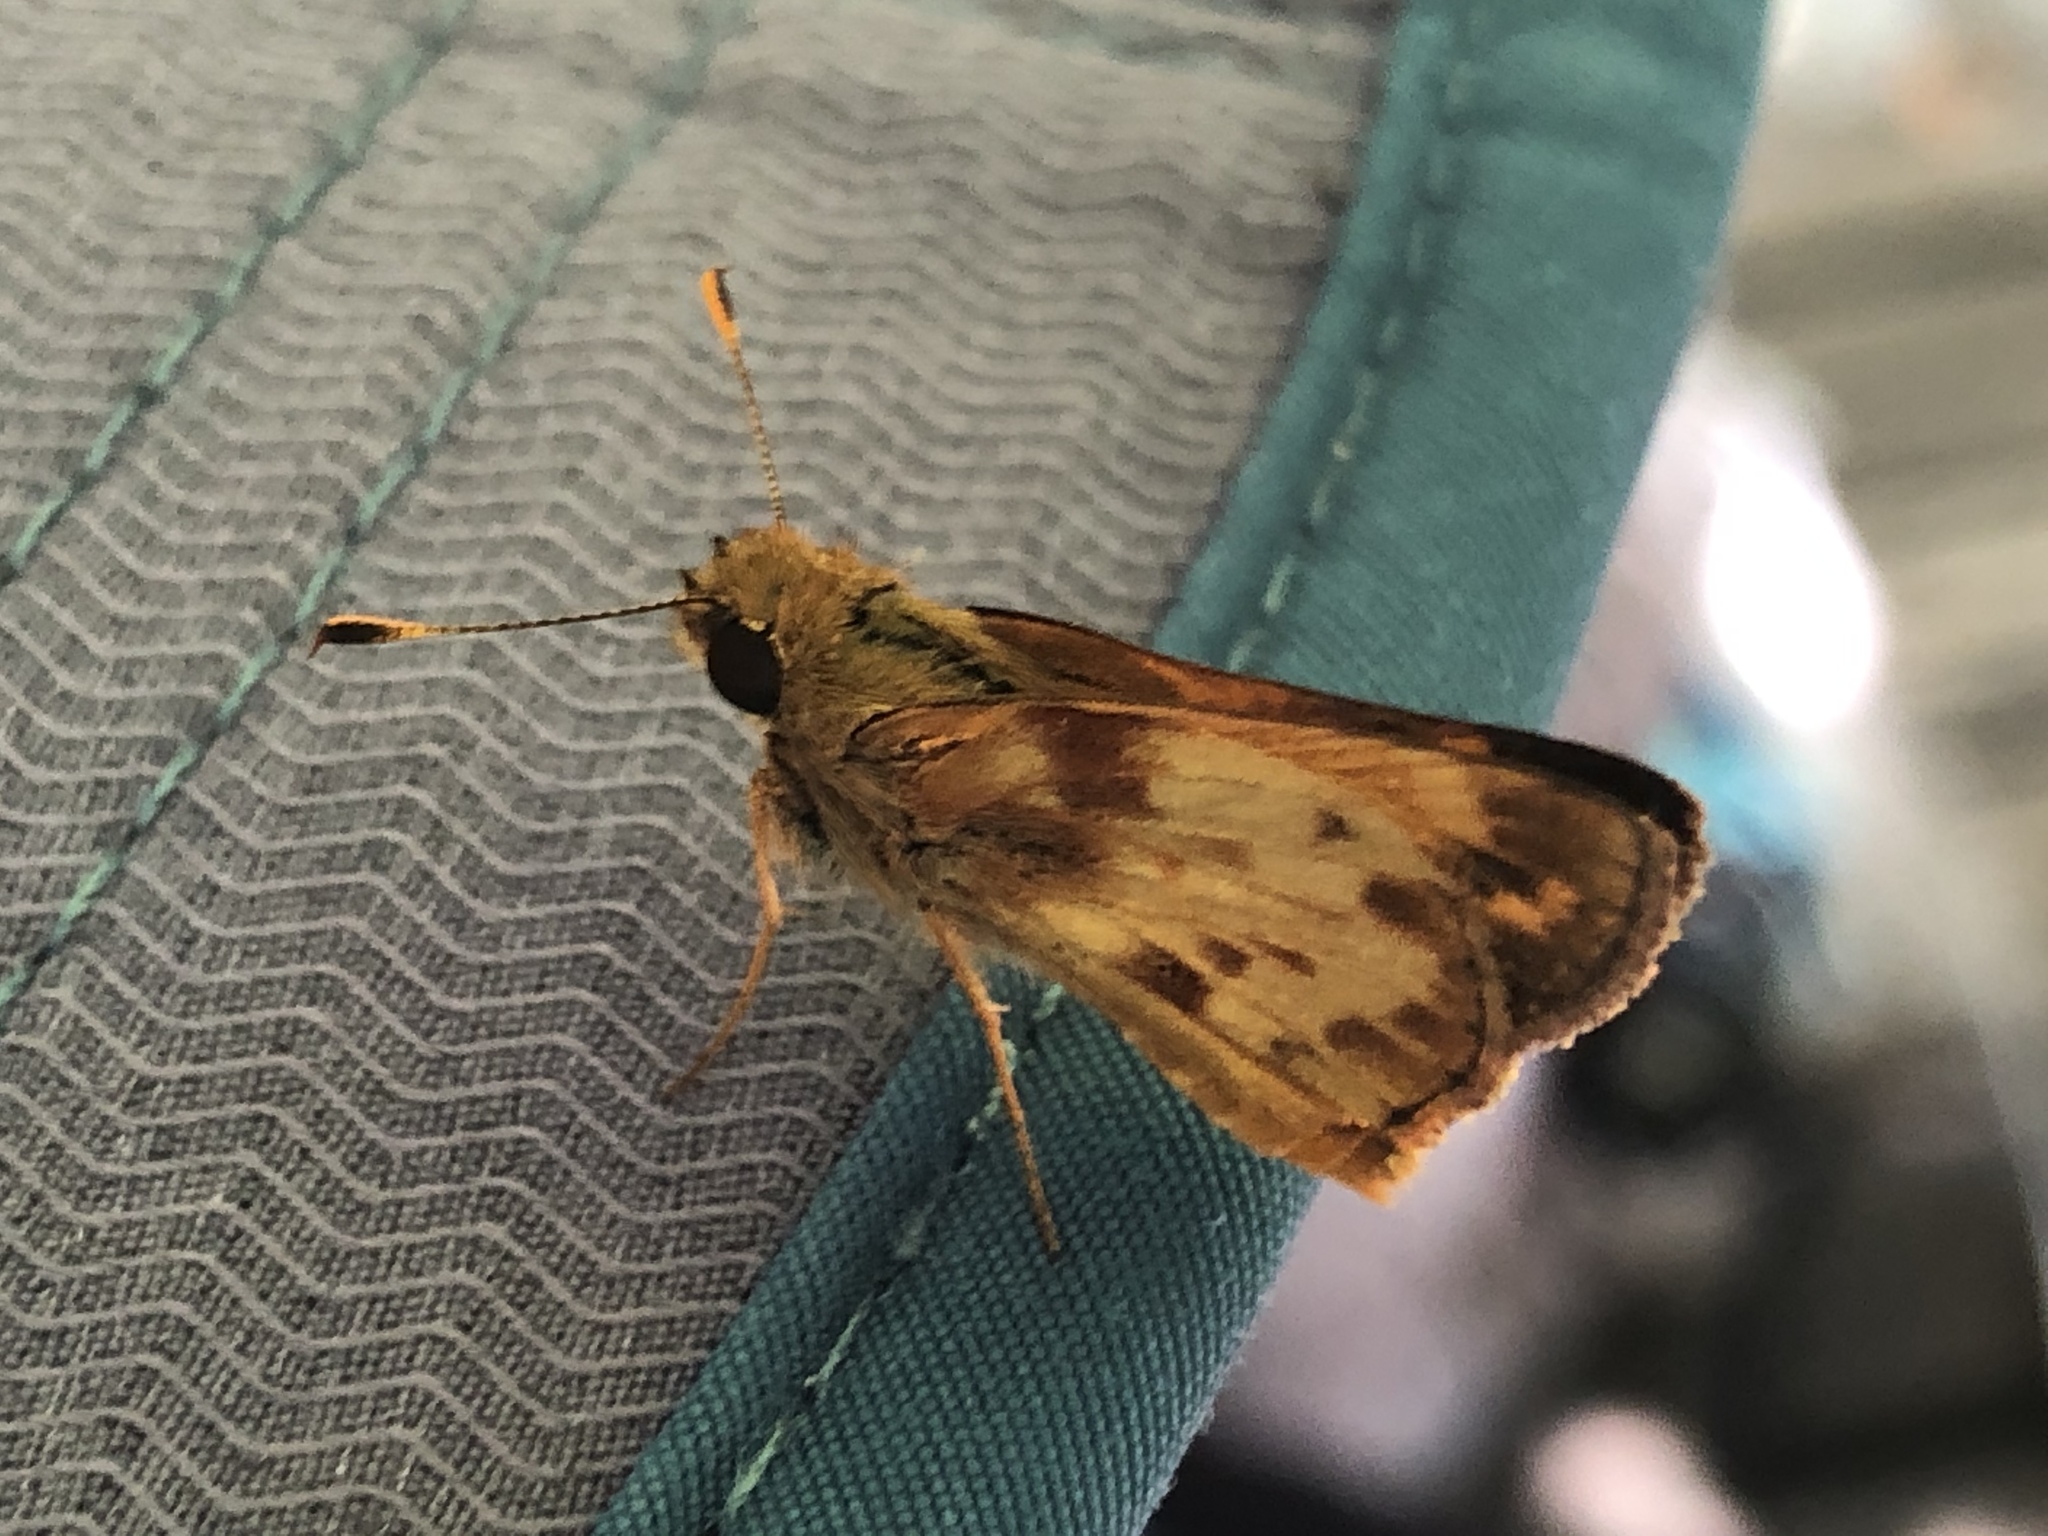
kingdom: Animalia
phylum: Arthropoda
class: Insecta
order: Lepidoptera
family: Hesperiidae
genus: Lon
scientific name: Lon zabulon
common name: Zabulon skipper
